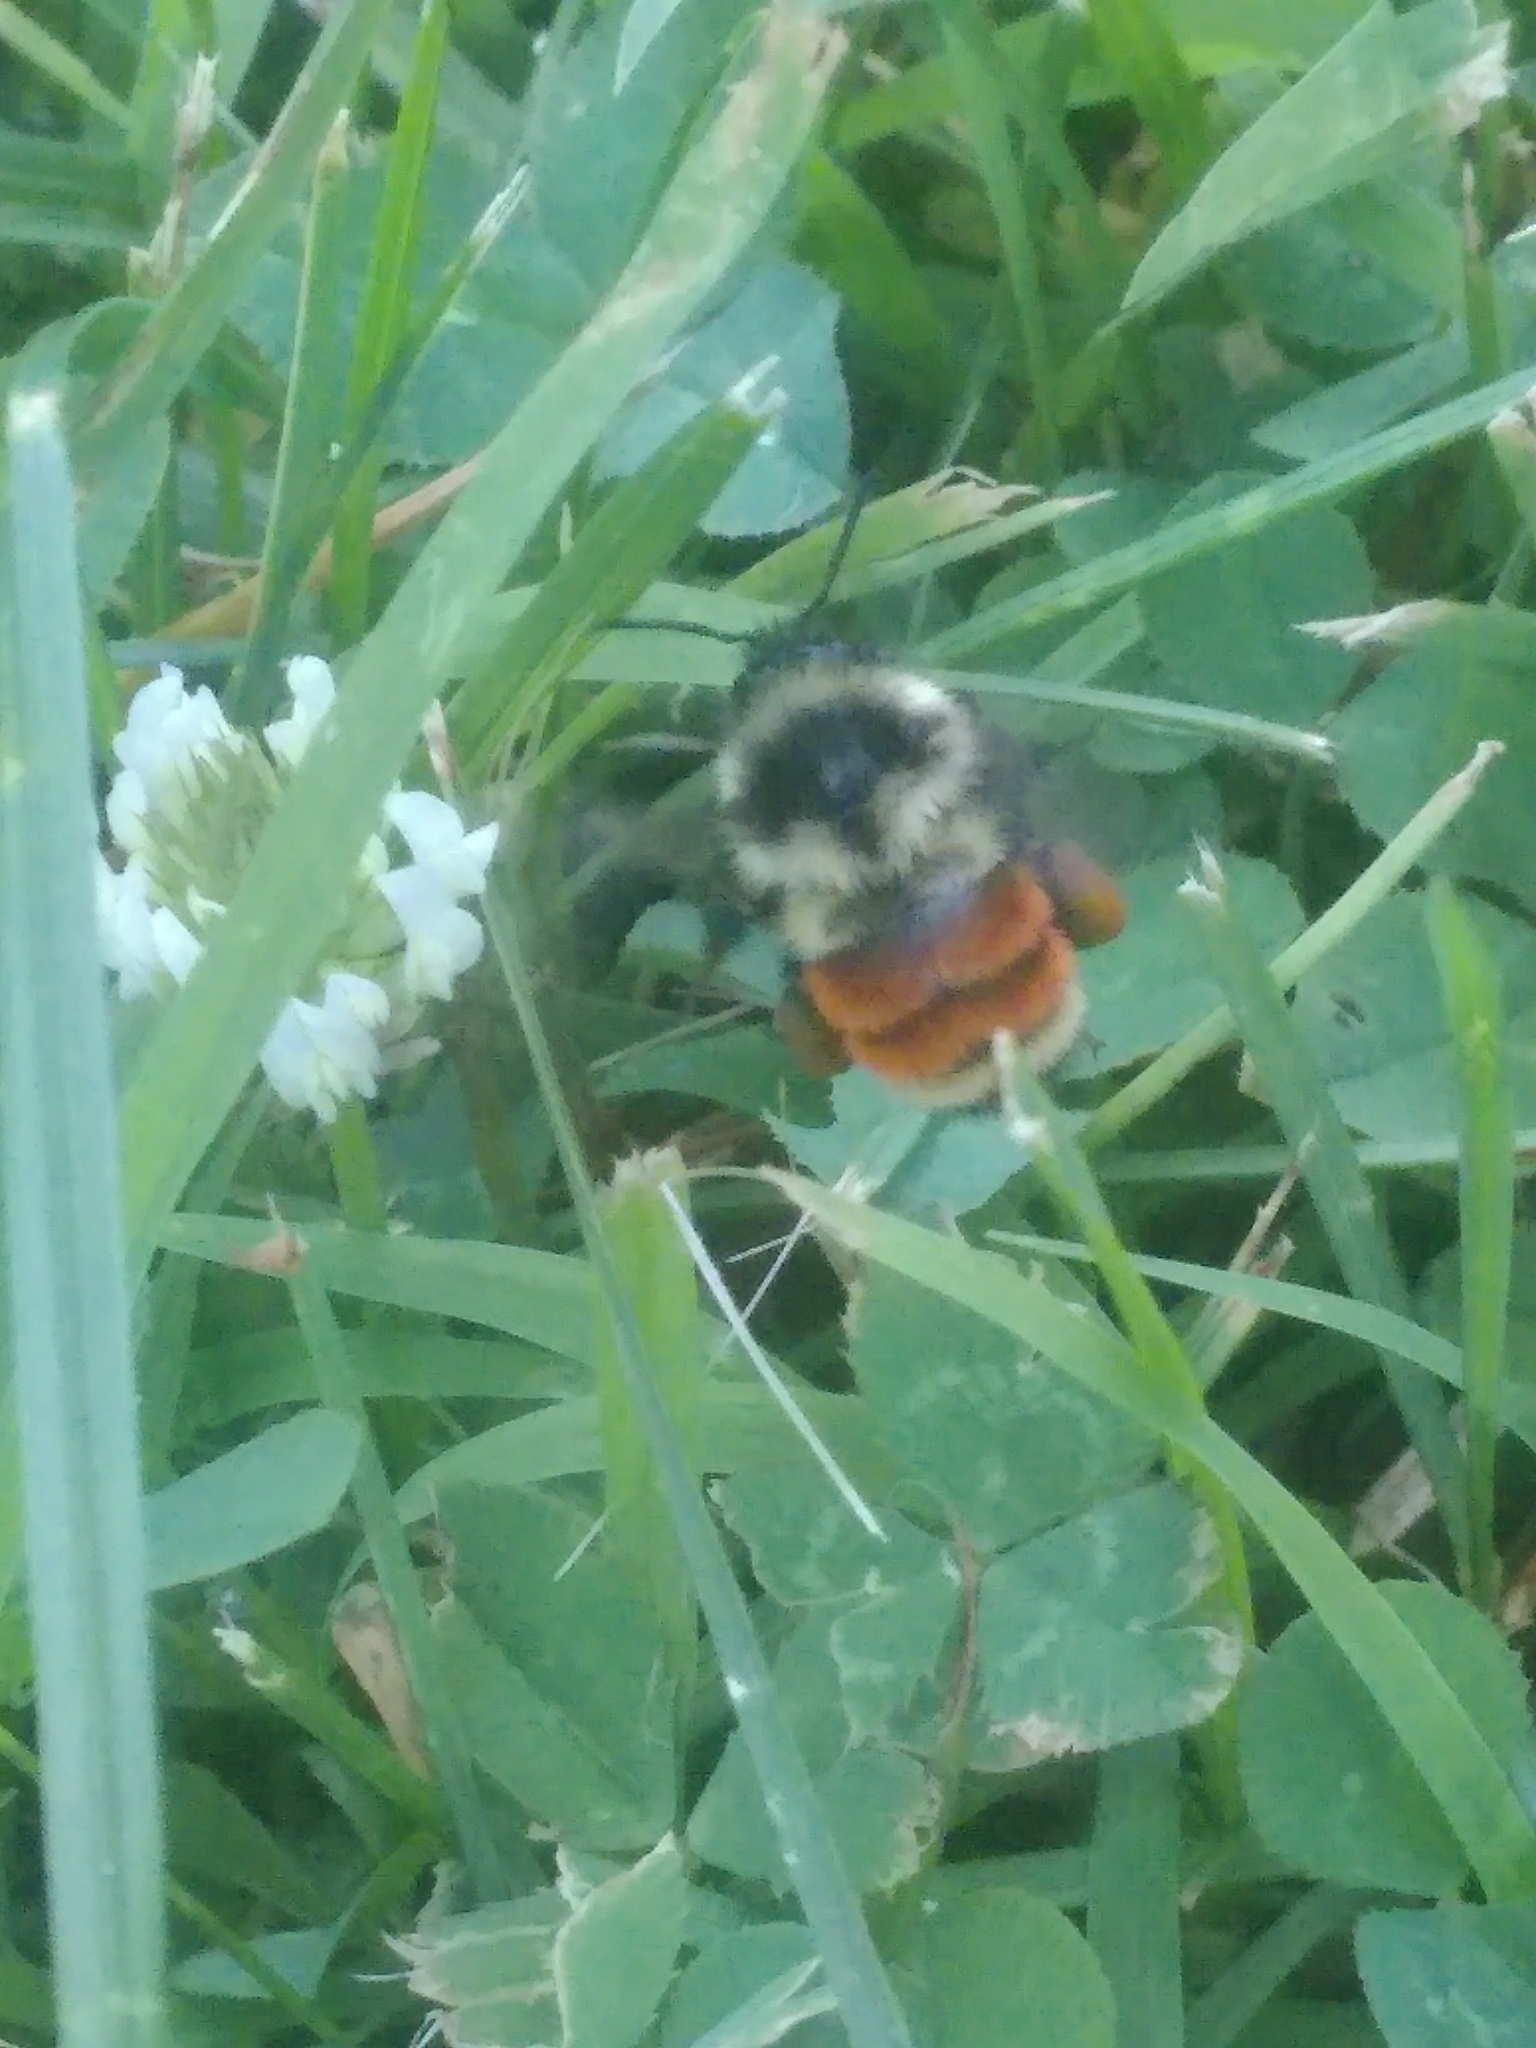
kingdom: Animalia
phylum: Arthropoda
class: Insecta
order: Hymenoptera
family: Apidae
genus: Bombus
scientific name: Bombus ternarius
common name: Tri-colored bumble bee
